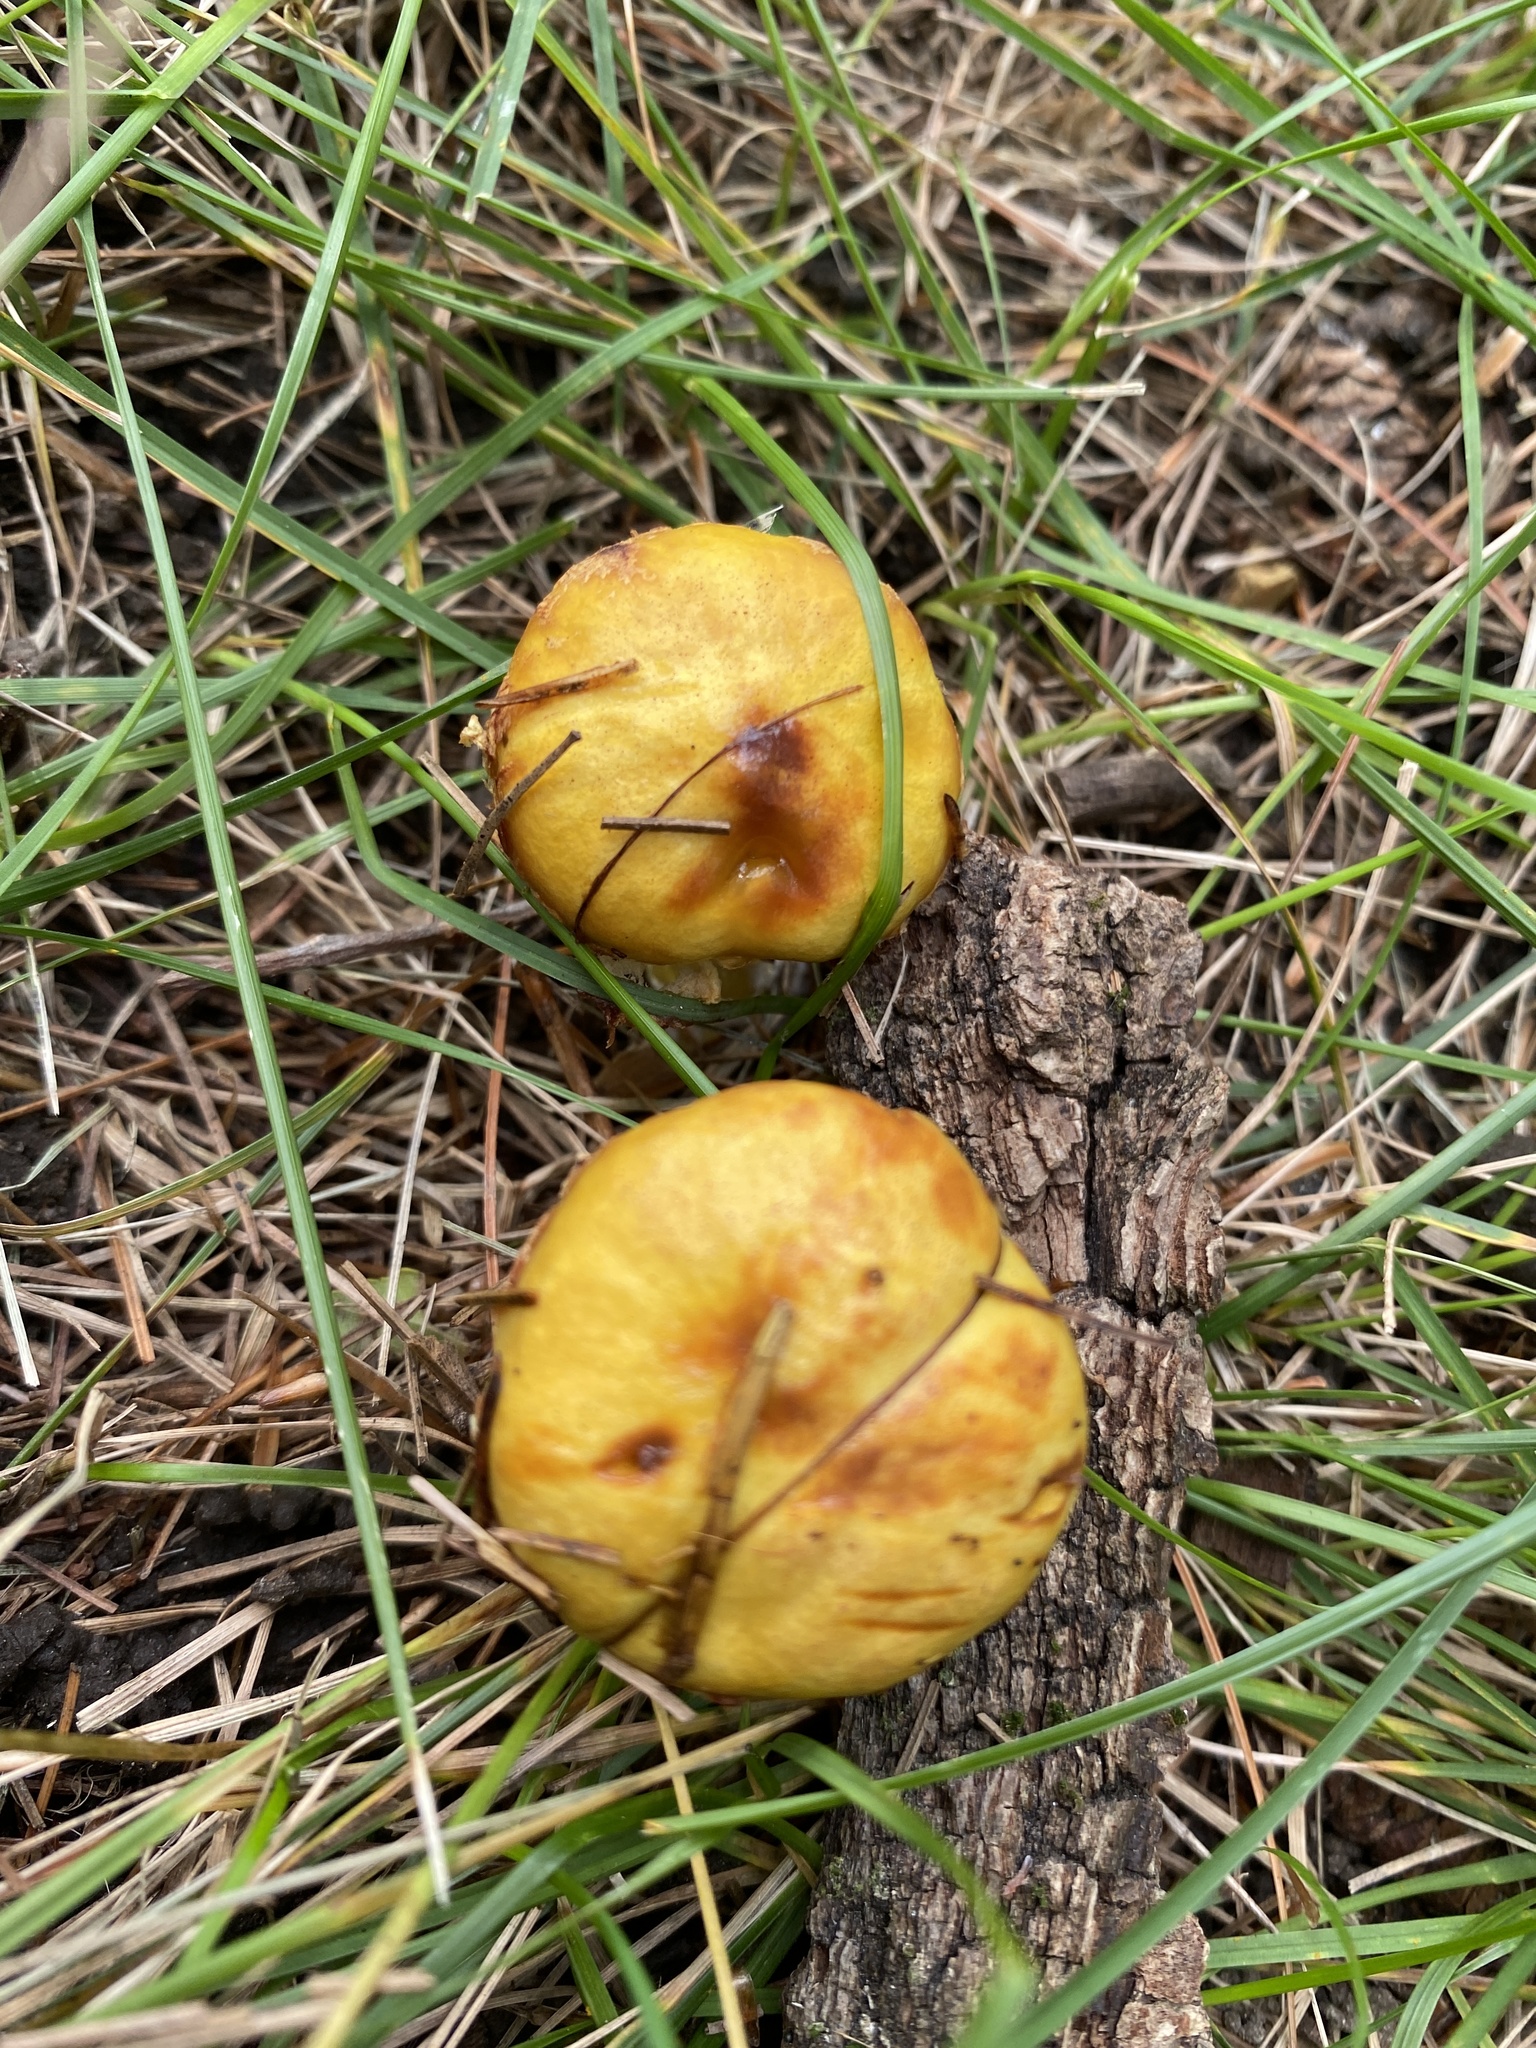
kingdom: Fungi
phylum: Basidiomycota
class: Agaricomycetes
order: Boletales
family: Suillaceae
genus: Suillus
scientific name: Suillus americanus
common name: Chicken fat mushroom
